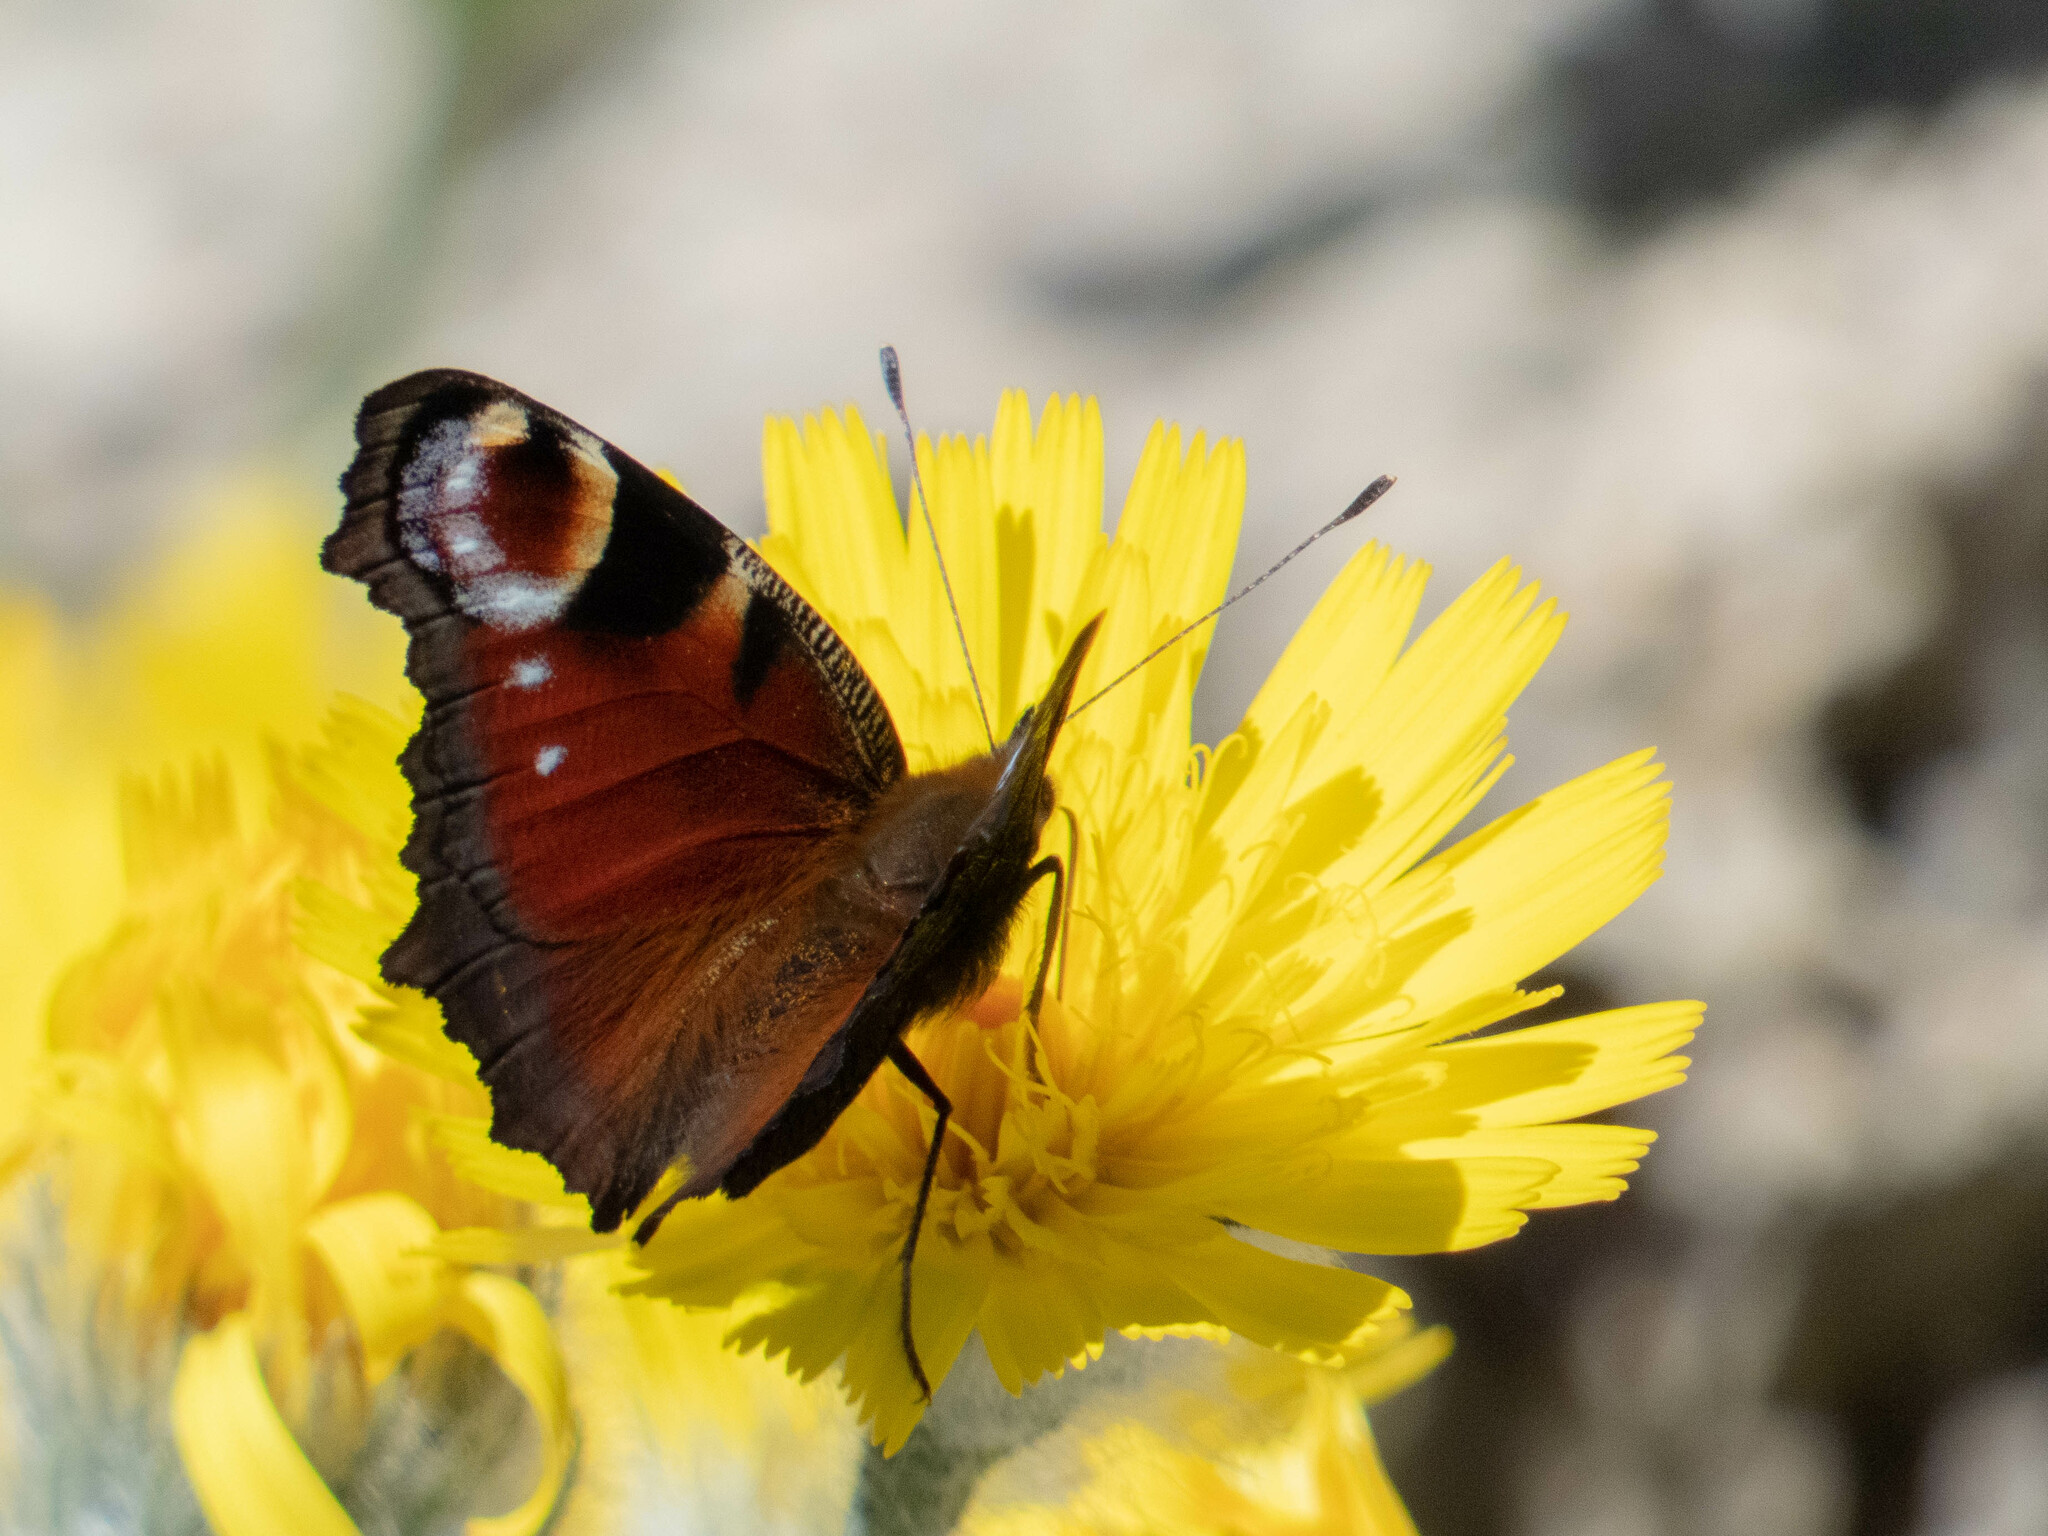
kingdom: Animalia
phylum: Arthropoda
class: Insecta
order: Lepidoptera
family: Nymphalidae
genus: Aglais
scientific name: Aglais io
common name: Peacock
